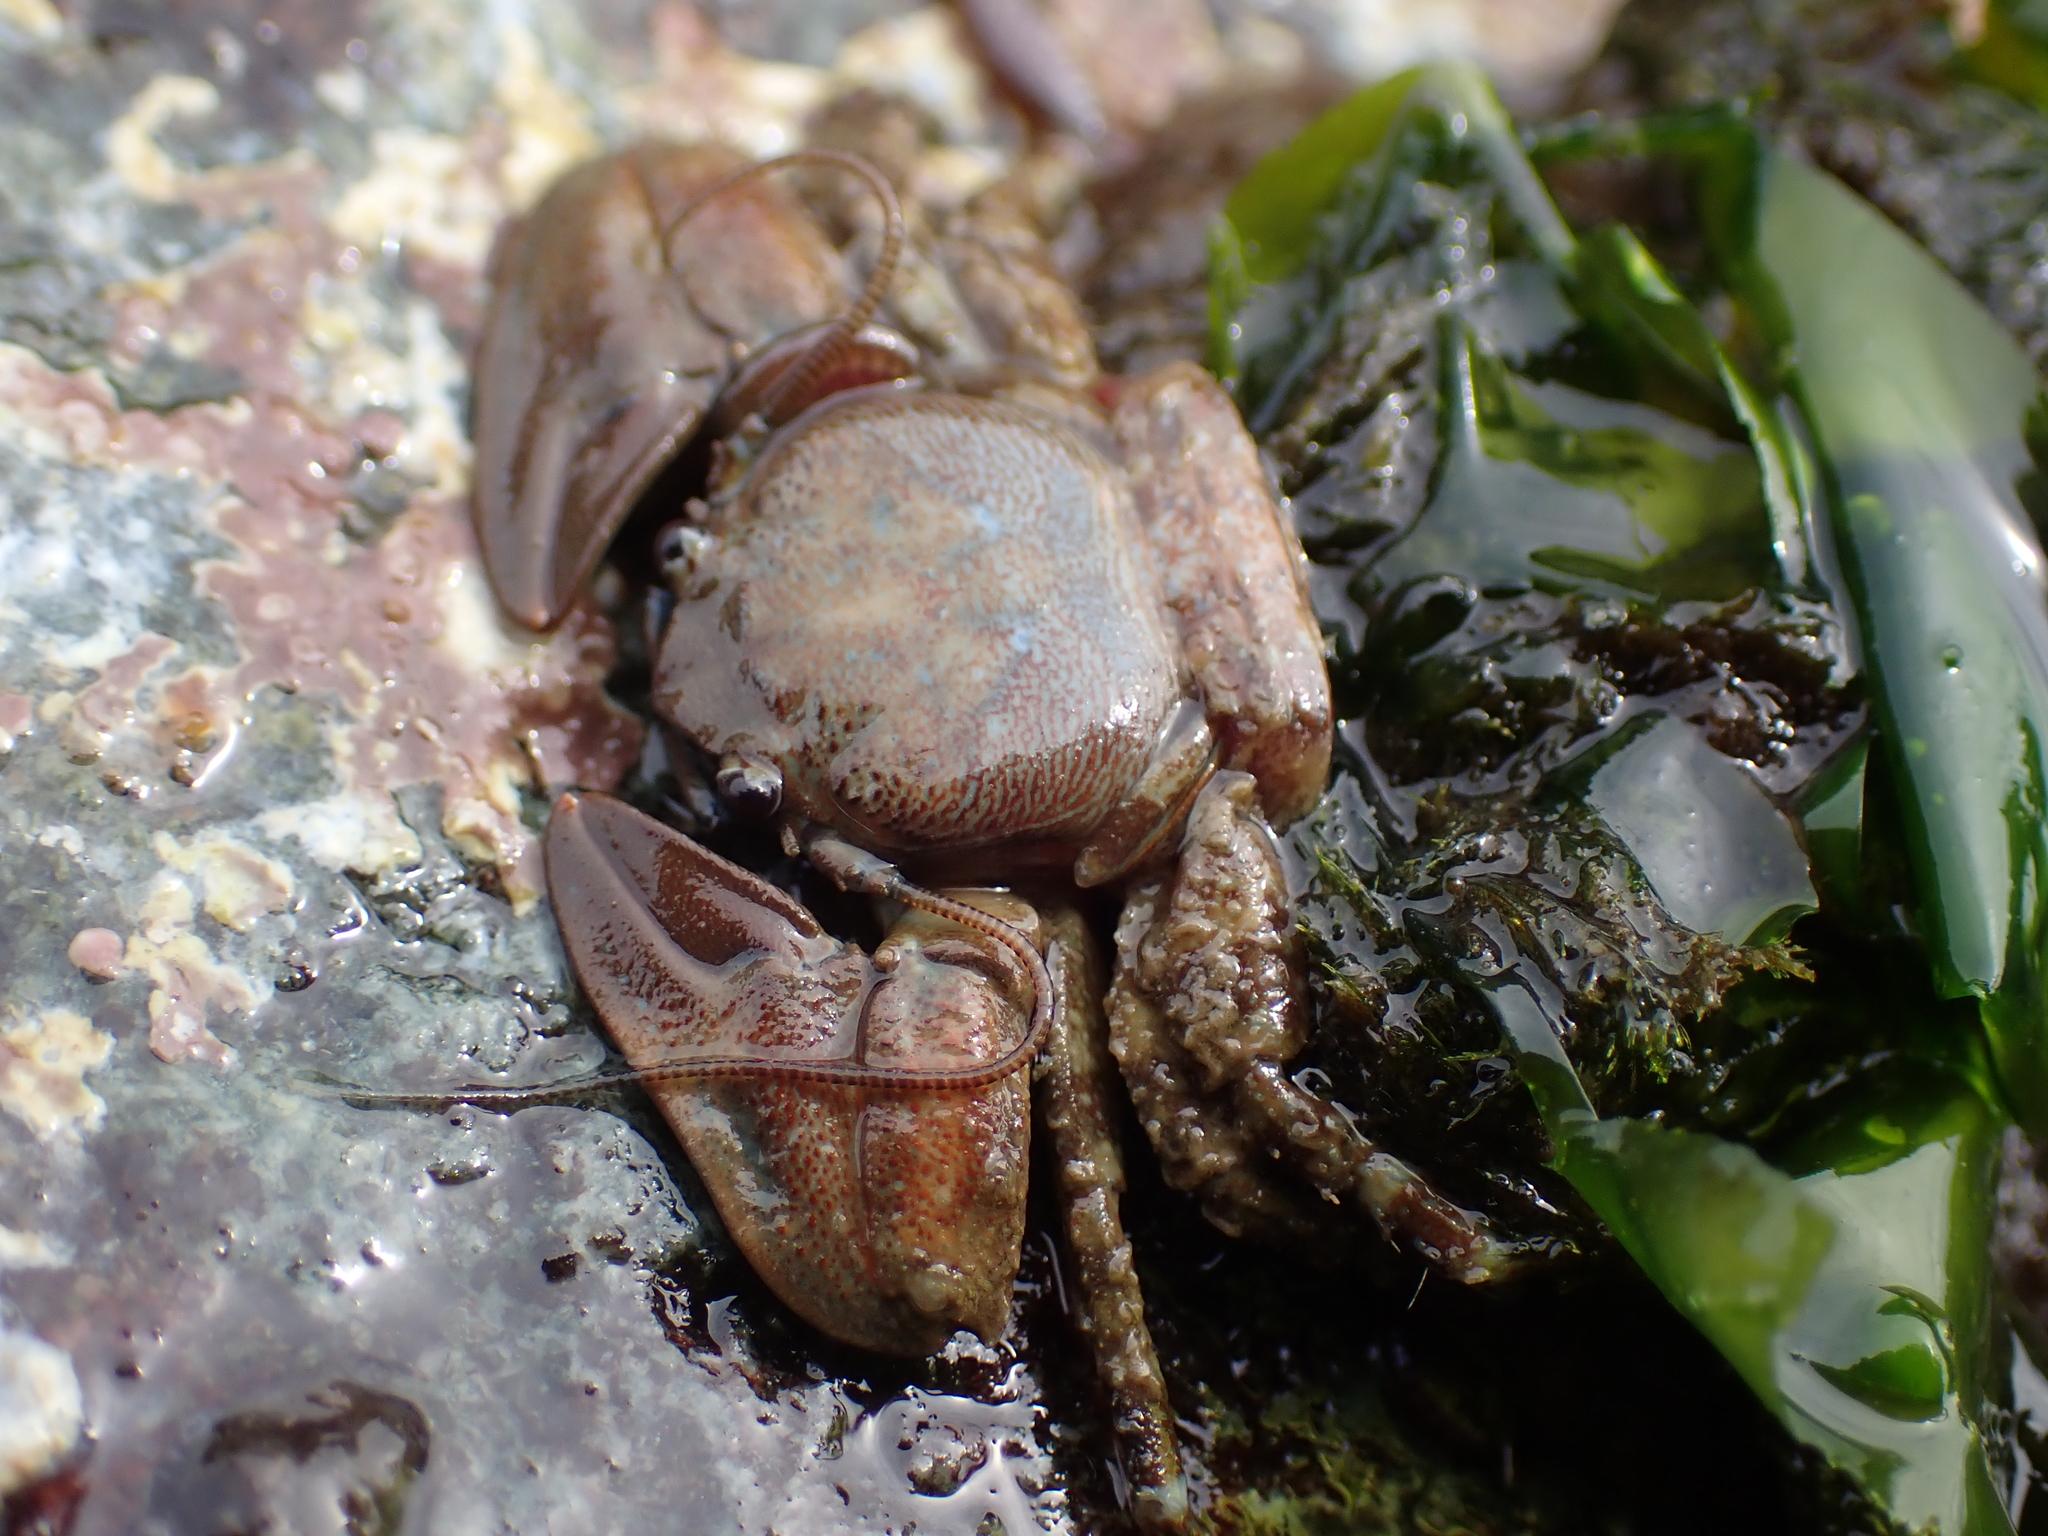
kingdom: Animalia
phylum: Arthropoda
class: Malacostraca
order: Decapoda
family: Porcellanidae
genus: Petrolisthes
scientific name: Petrolisthes eriomerus
